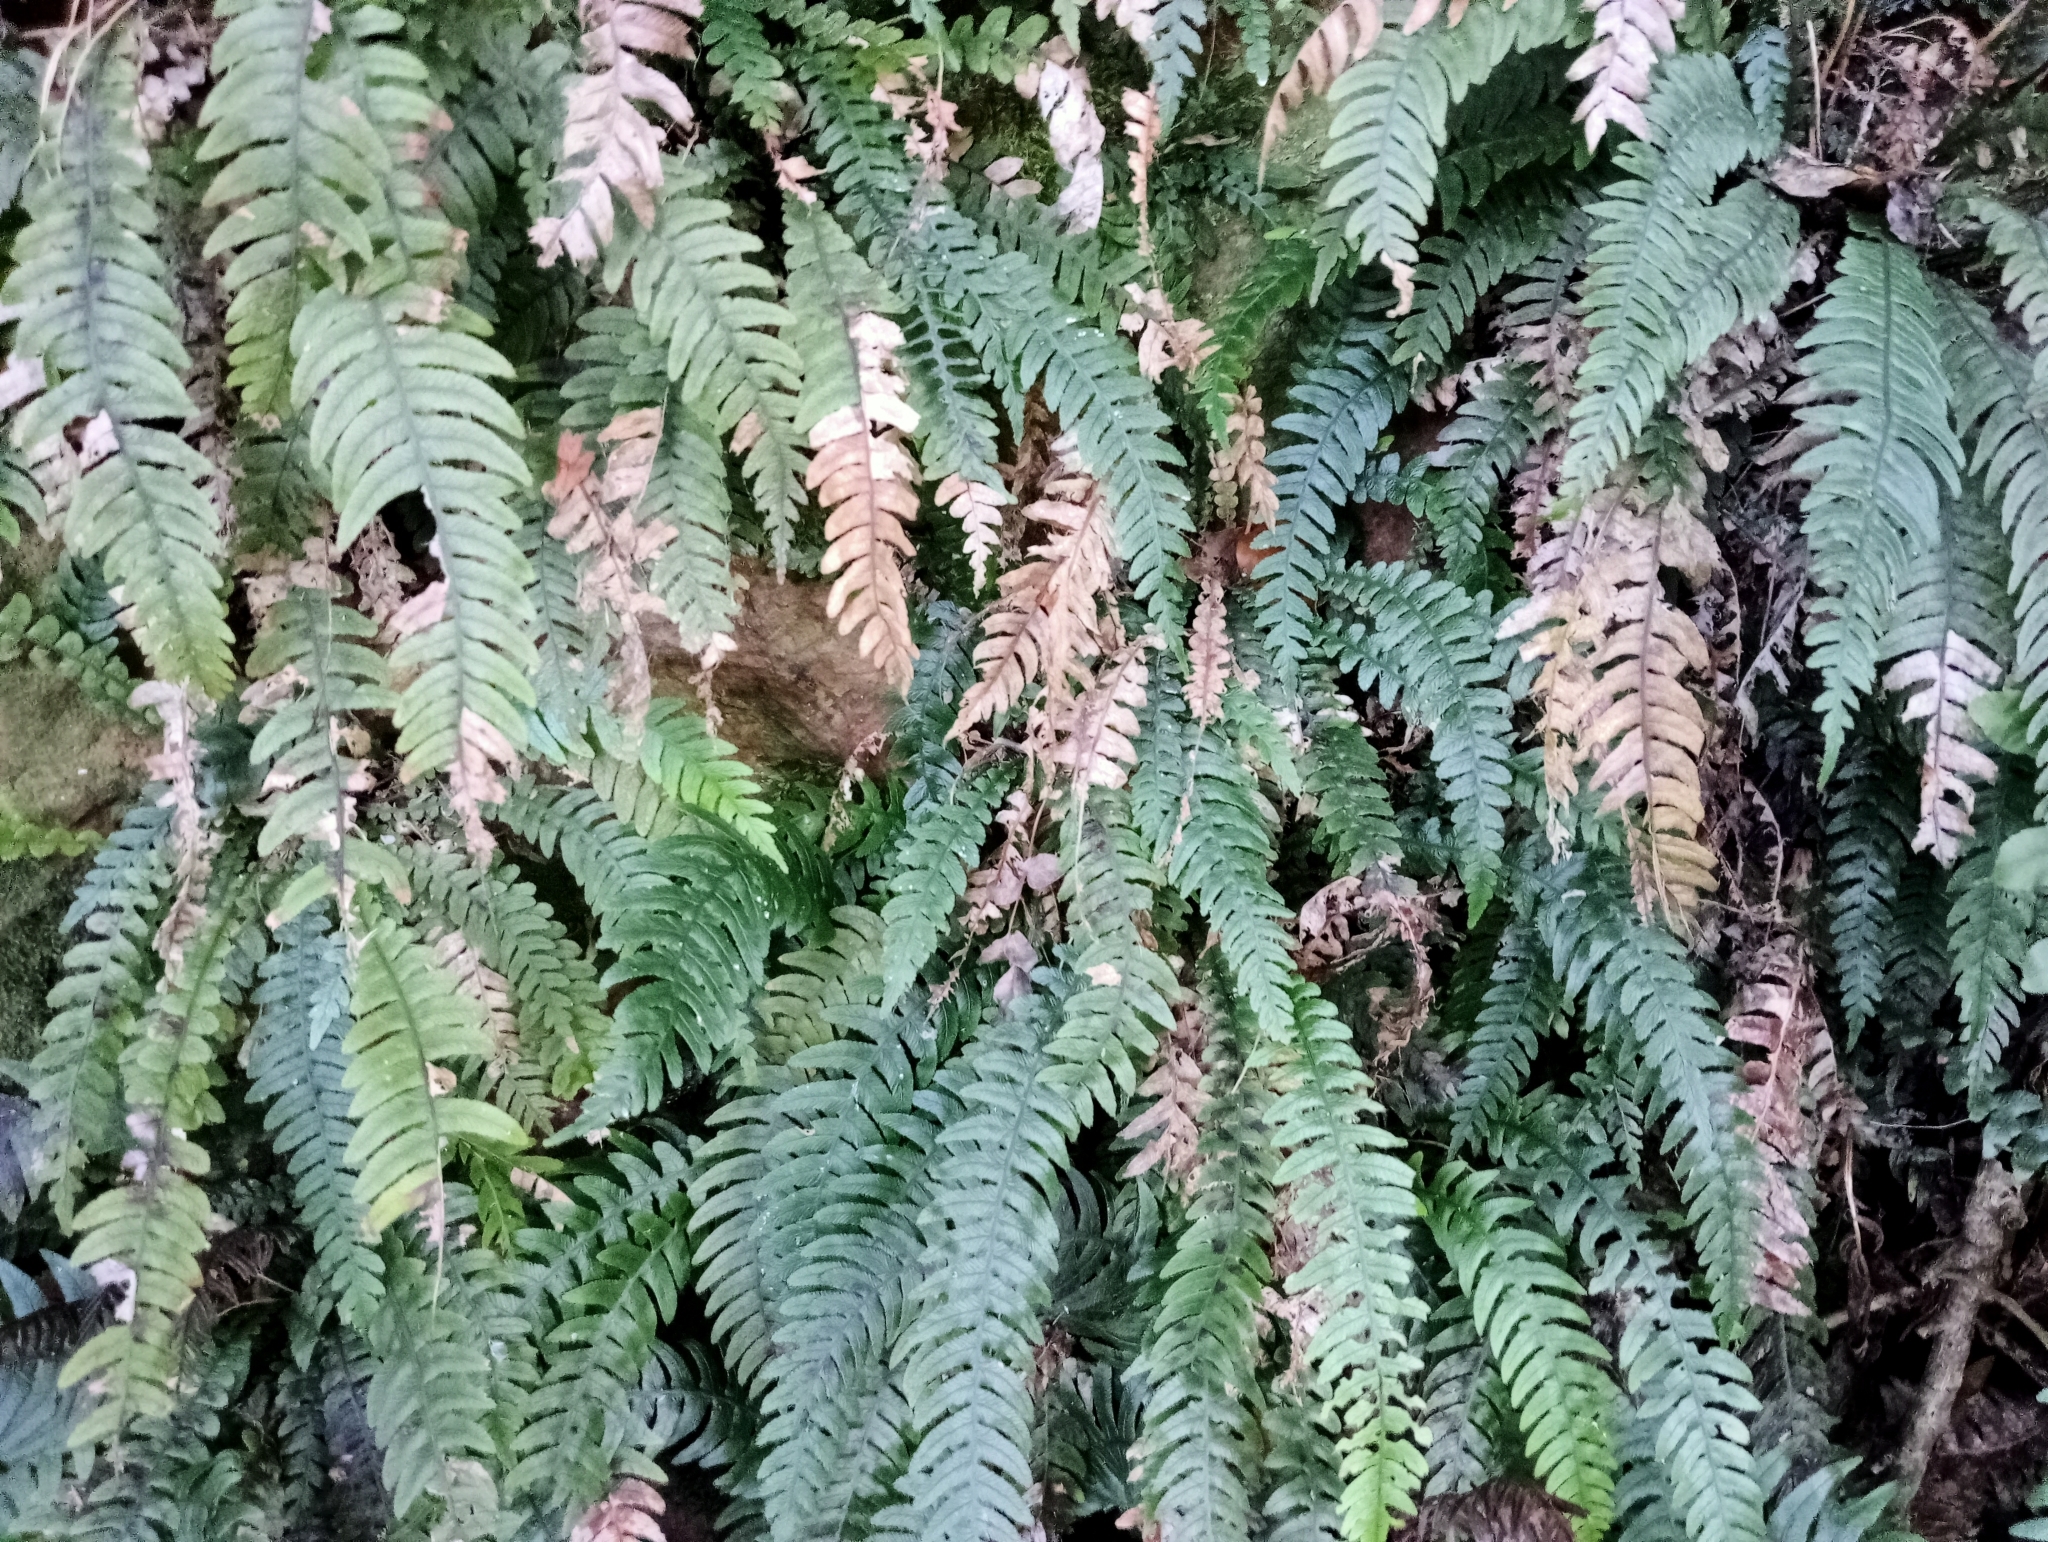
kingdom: Plantae
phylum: Tracheophyta
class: Polypodiopsida
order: Polypodiales
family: Blechnaceae
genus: Austroblechnum
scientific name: Austroblechnum lanceolatum
